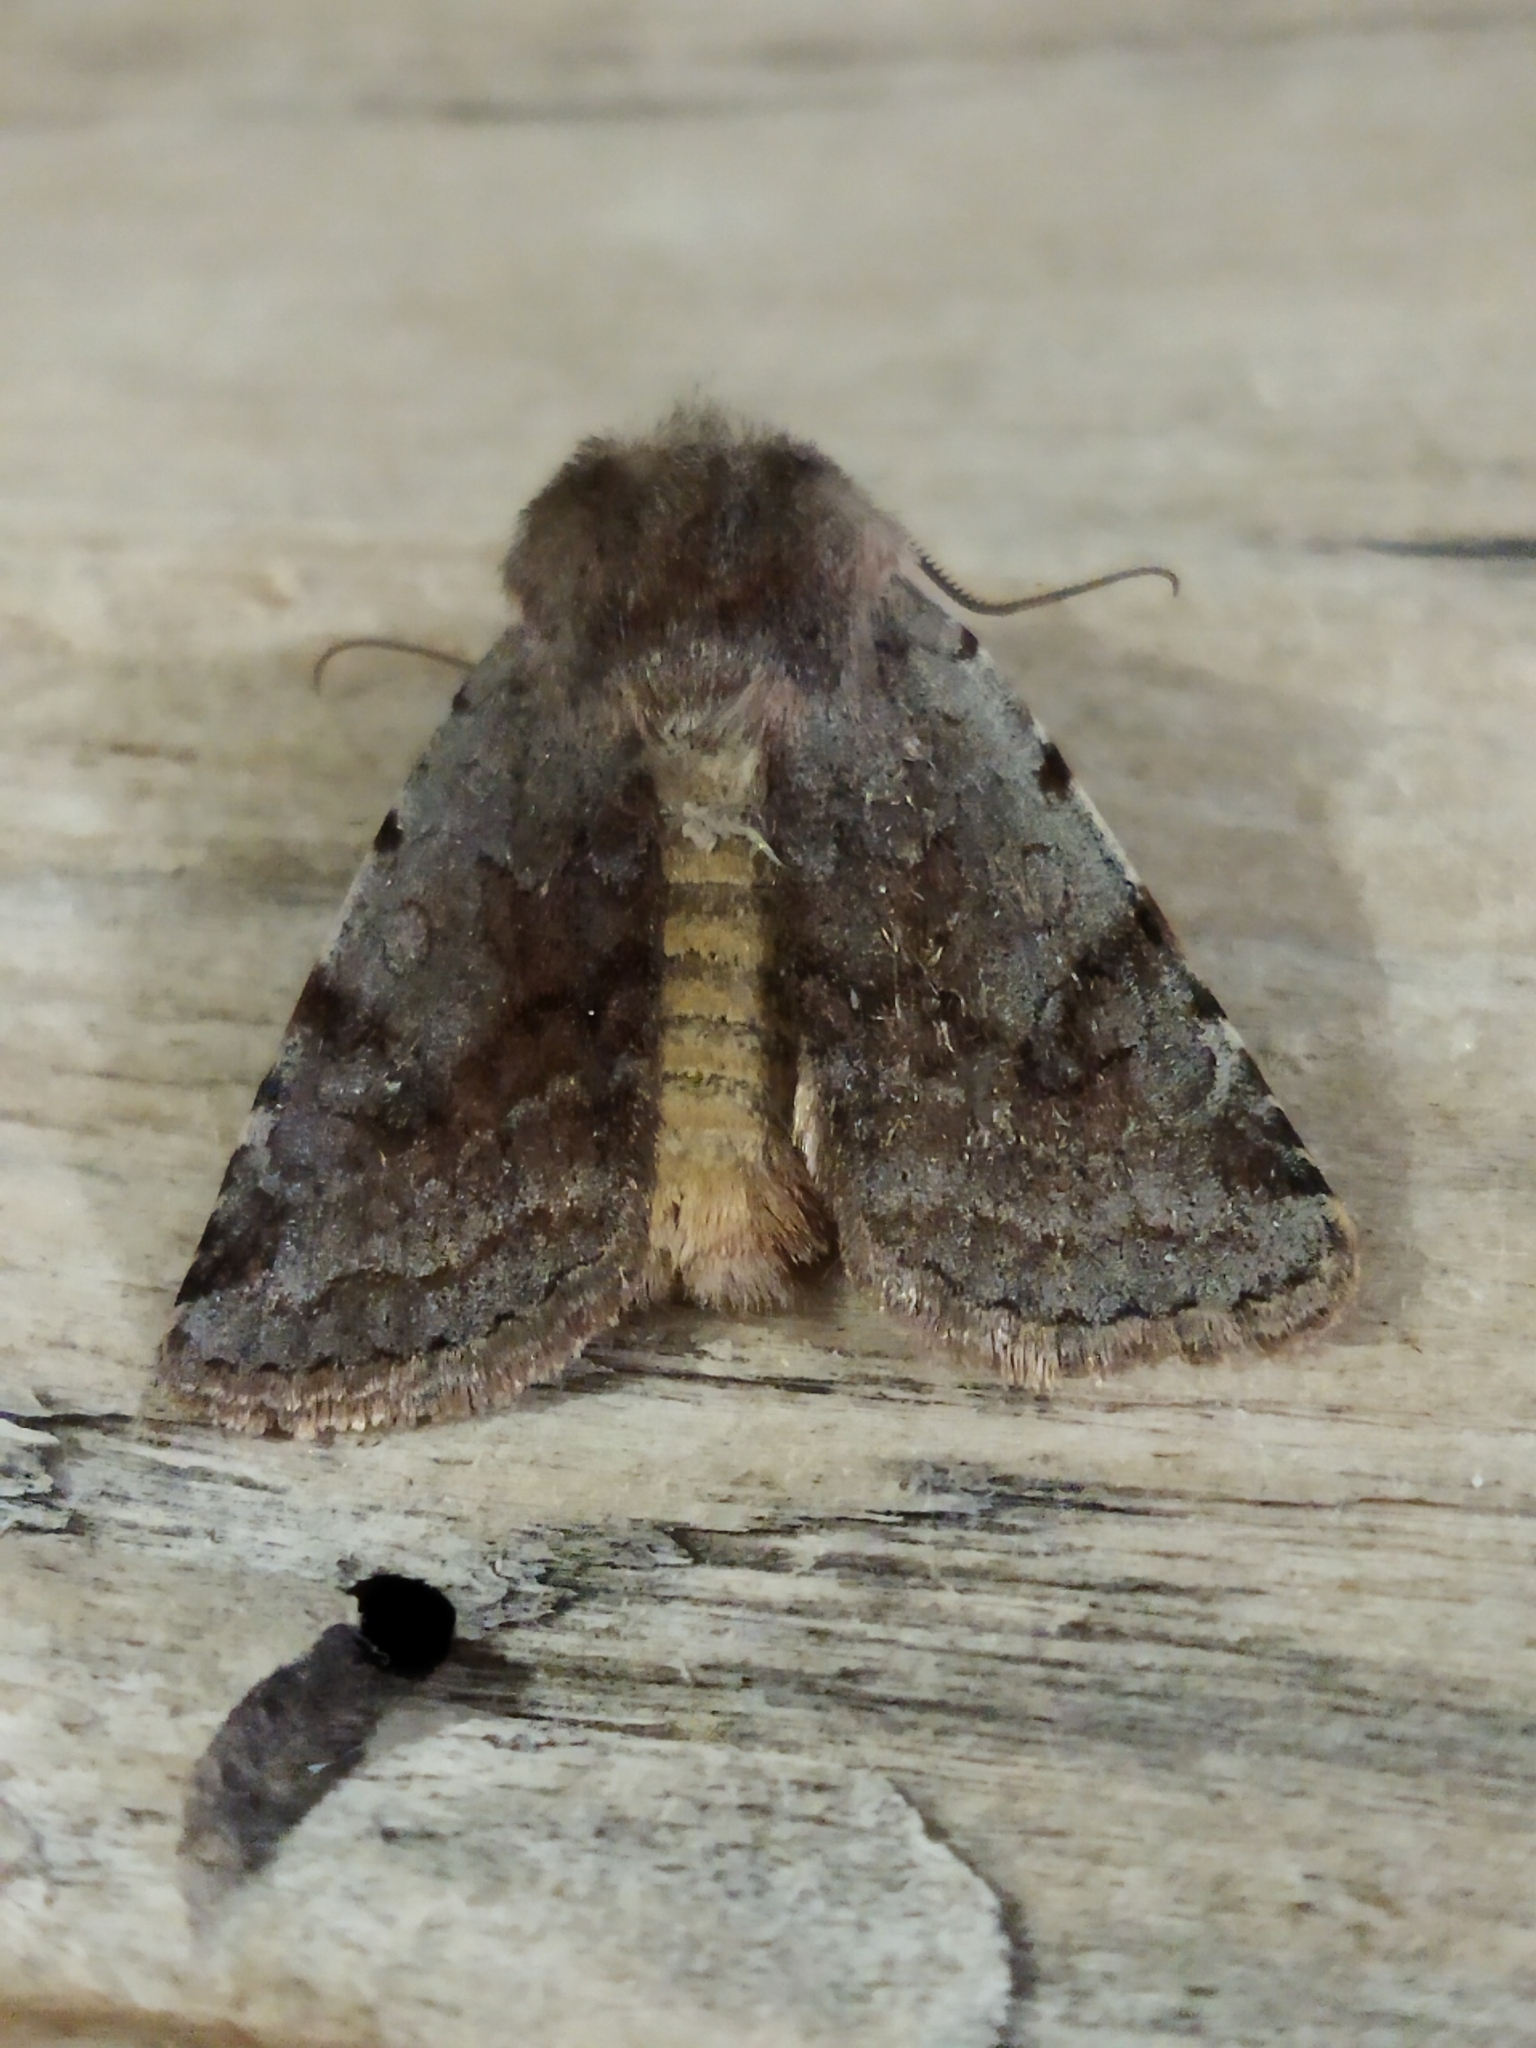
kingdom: Animalia
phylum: Arthropoda
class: Insecta
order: Lepidoptera
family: Noctuidae
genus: Cerastis
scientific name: Cerastis rubricosa
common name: Red chestnut
